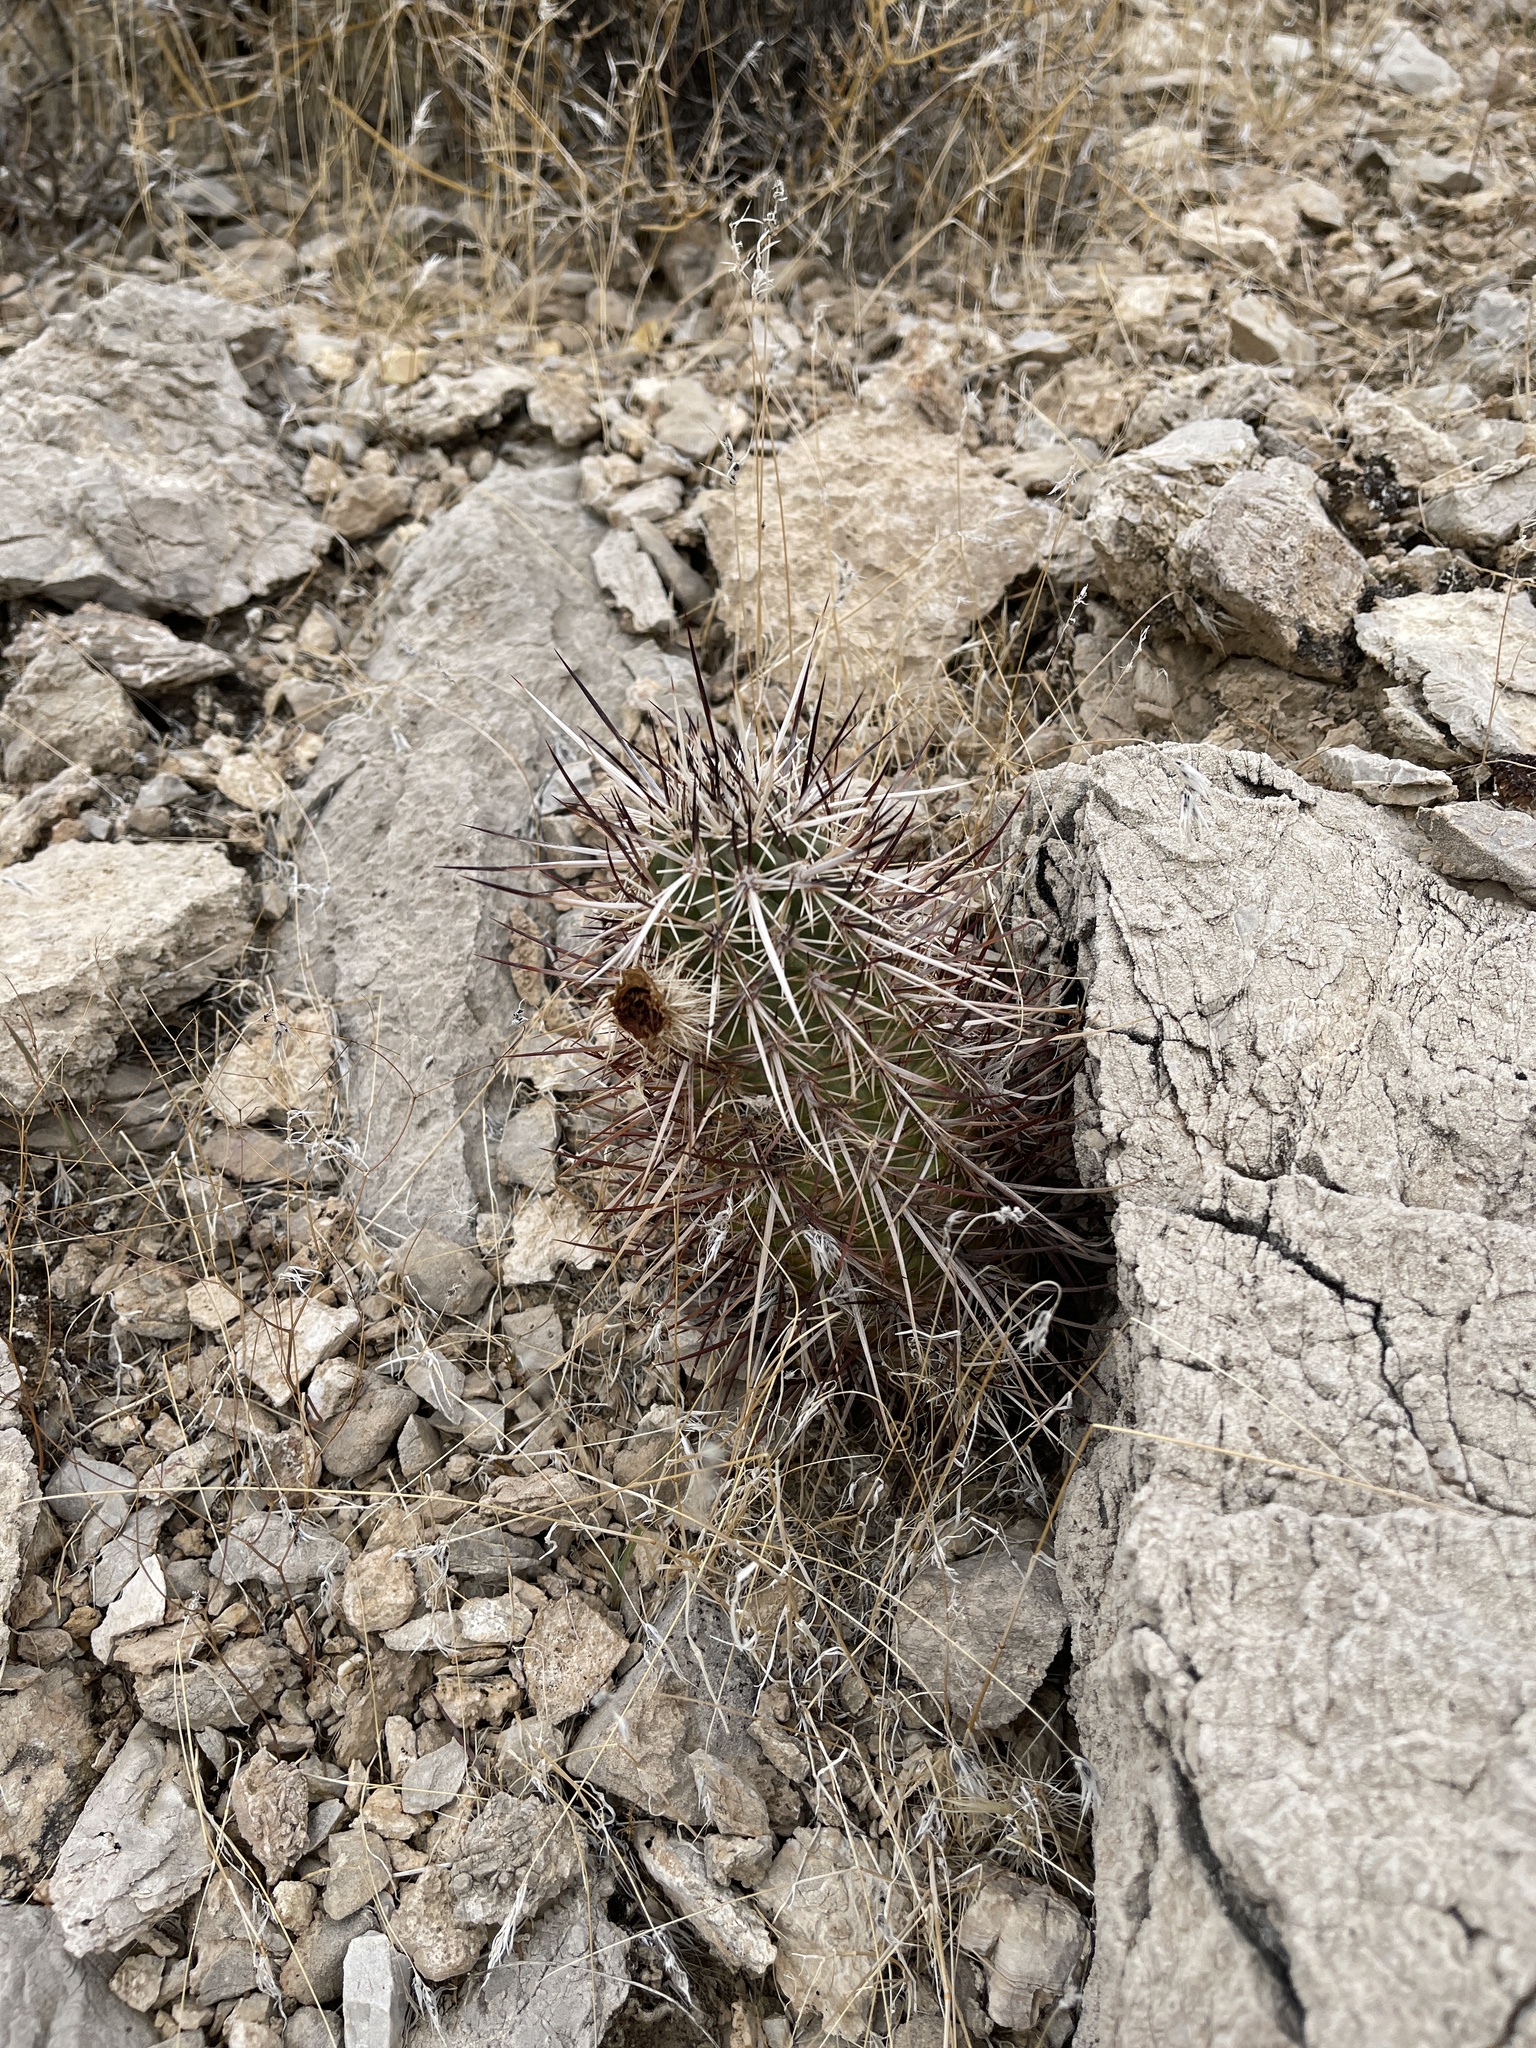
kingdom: Plantae
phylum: Tracheophyta
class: Magnoliopsida
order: Caryophyllales
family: Cactaceae
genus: Echinocereus
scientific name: Echinocereus engelmannii
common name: Engelmann's hedgehog cactus
